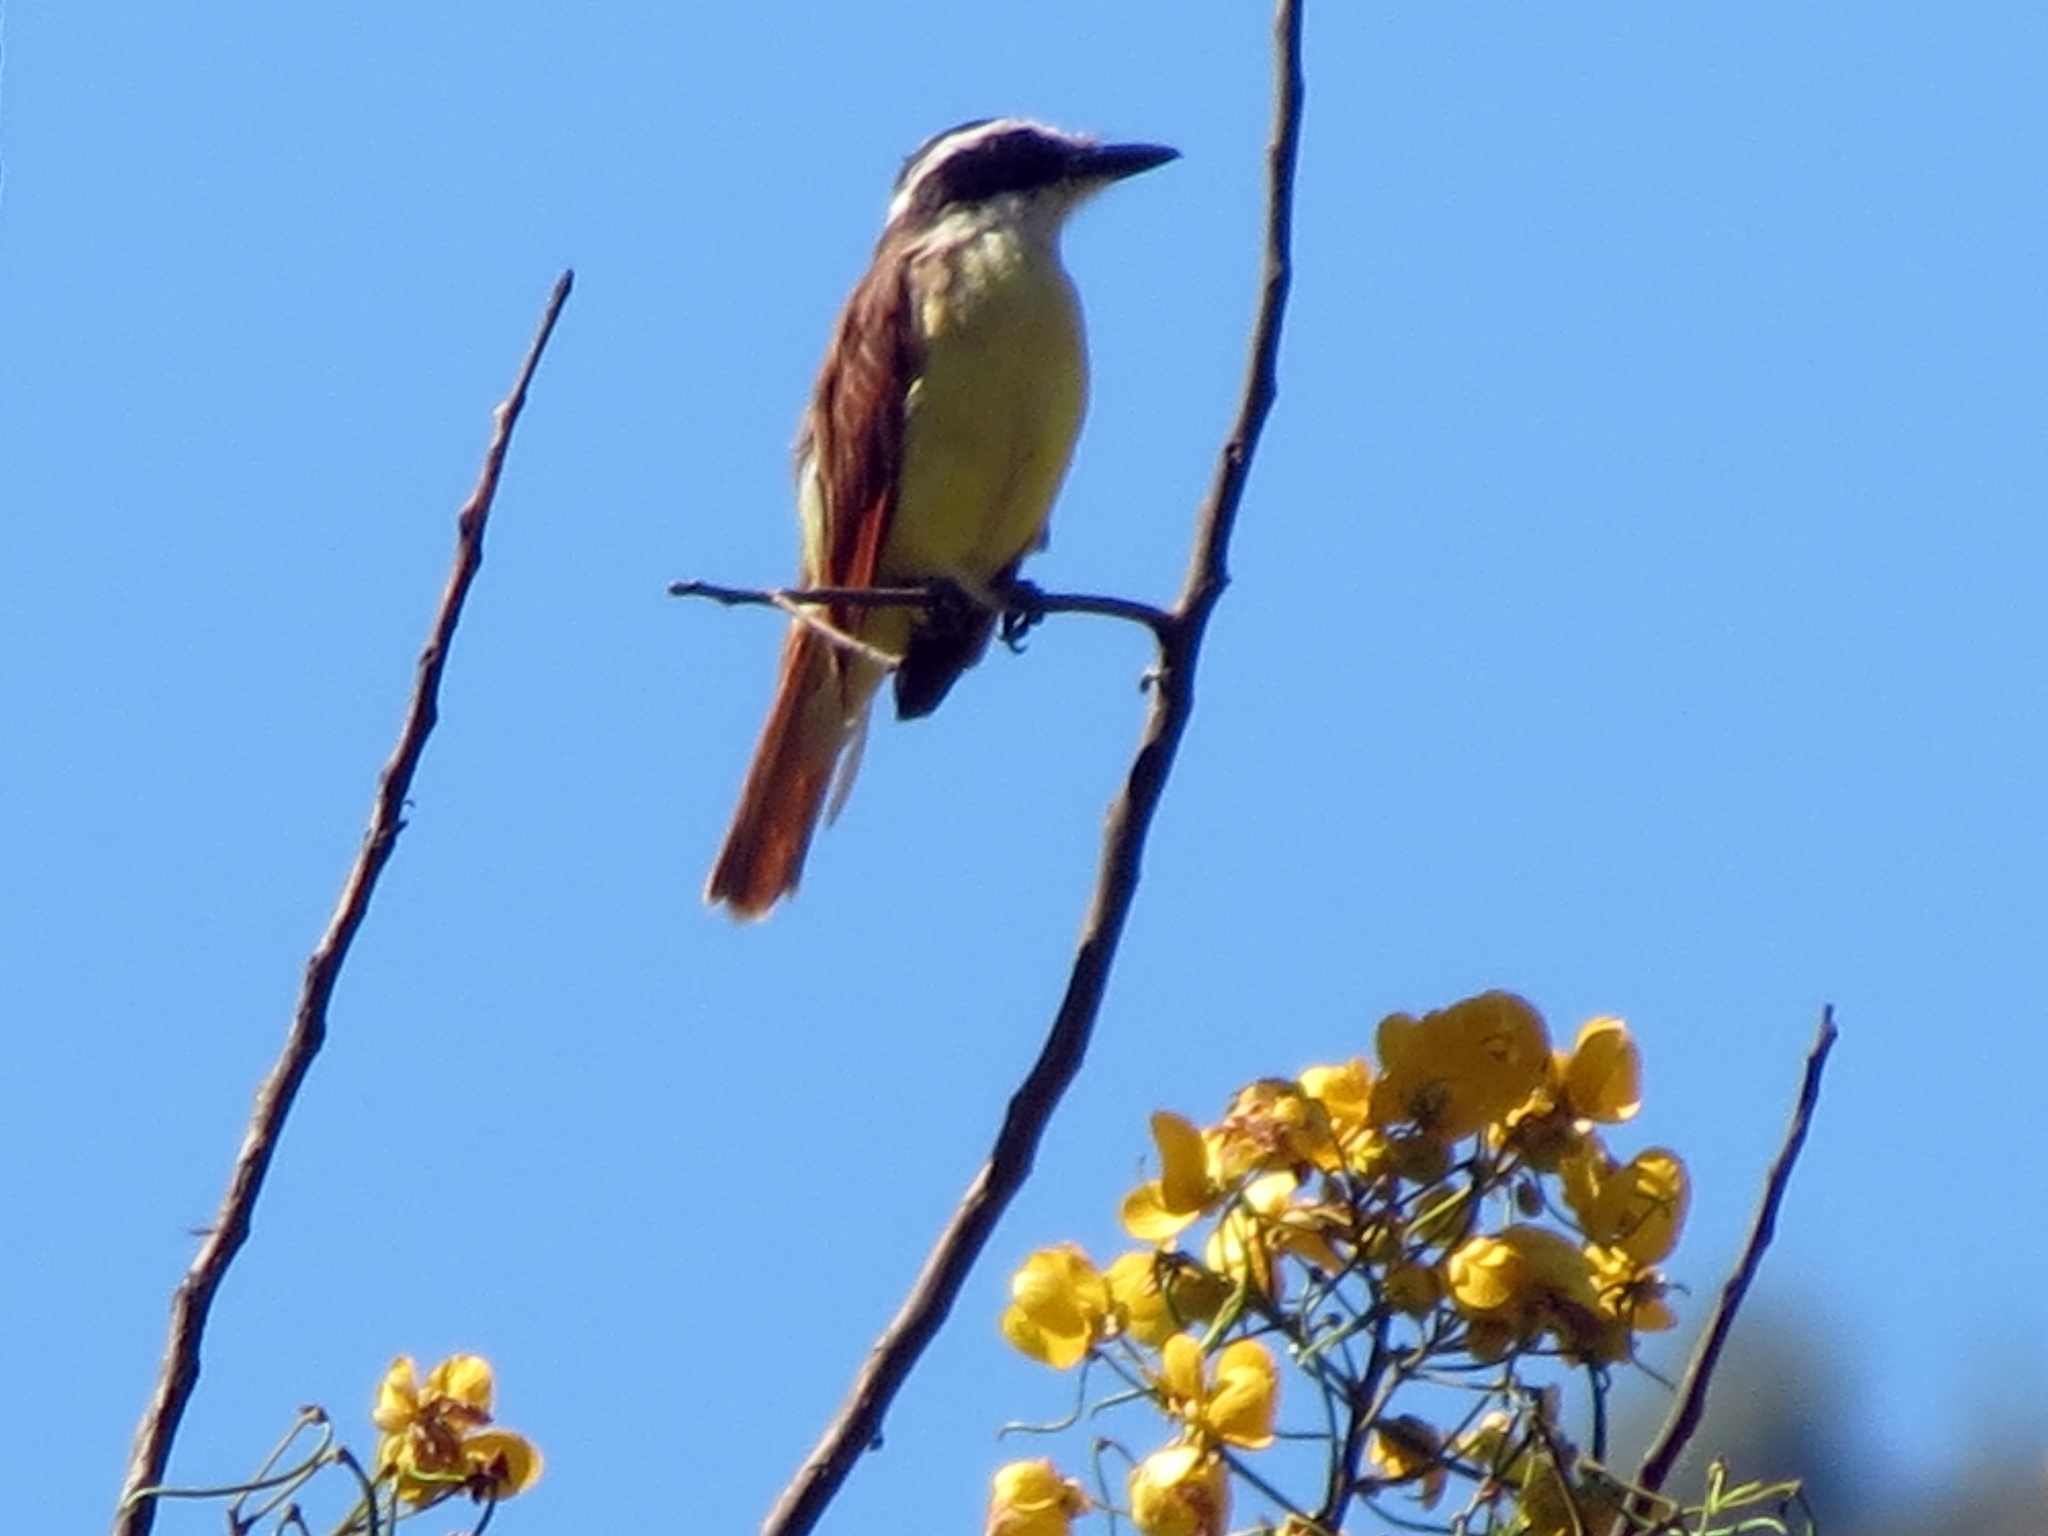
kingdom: Animalia
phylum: Chordata
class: Aves
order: Passeriformes
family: Tyrannidae
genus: Pitangus
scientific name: Pitangus sulphuratus
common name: Great kiskadee
